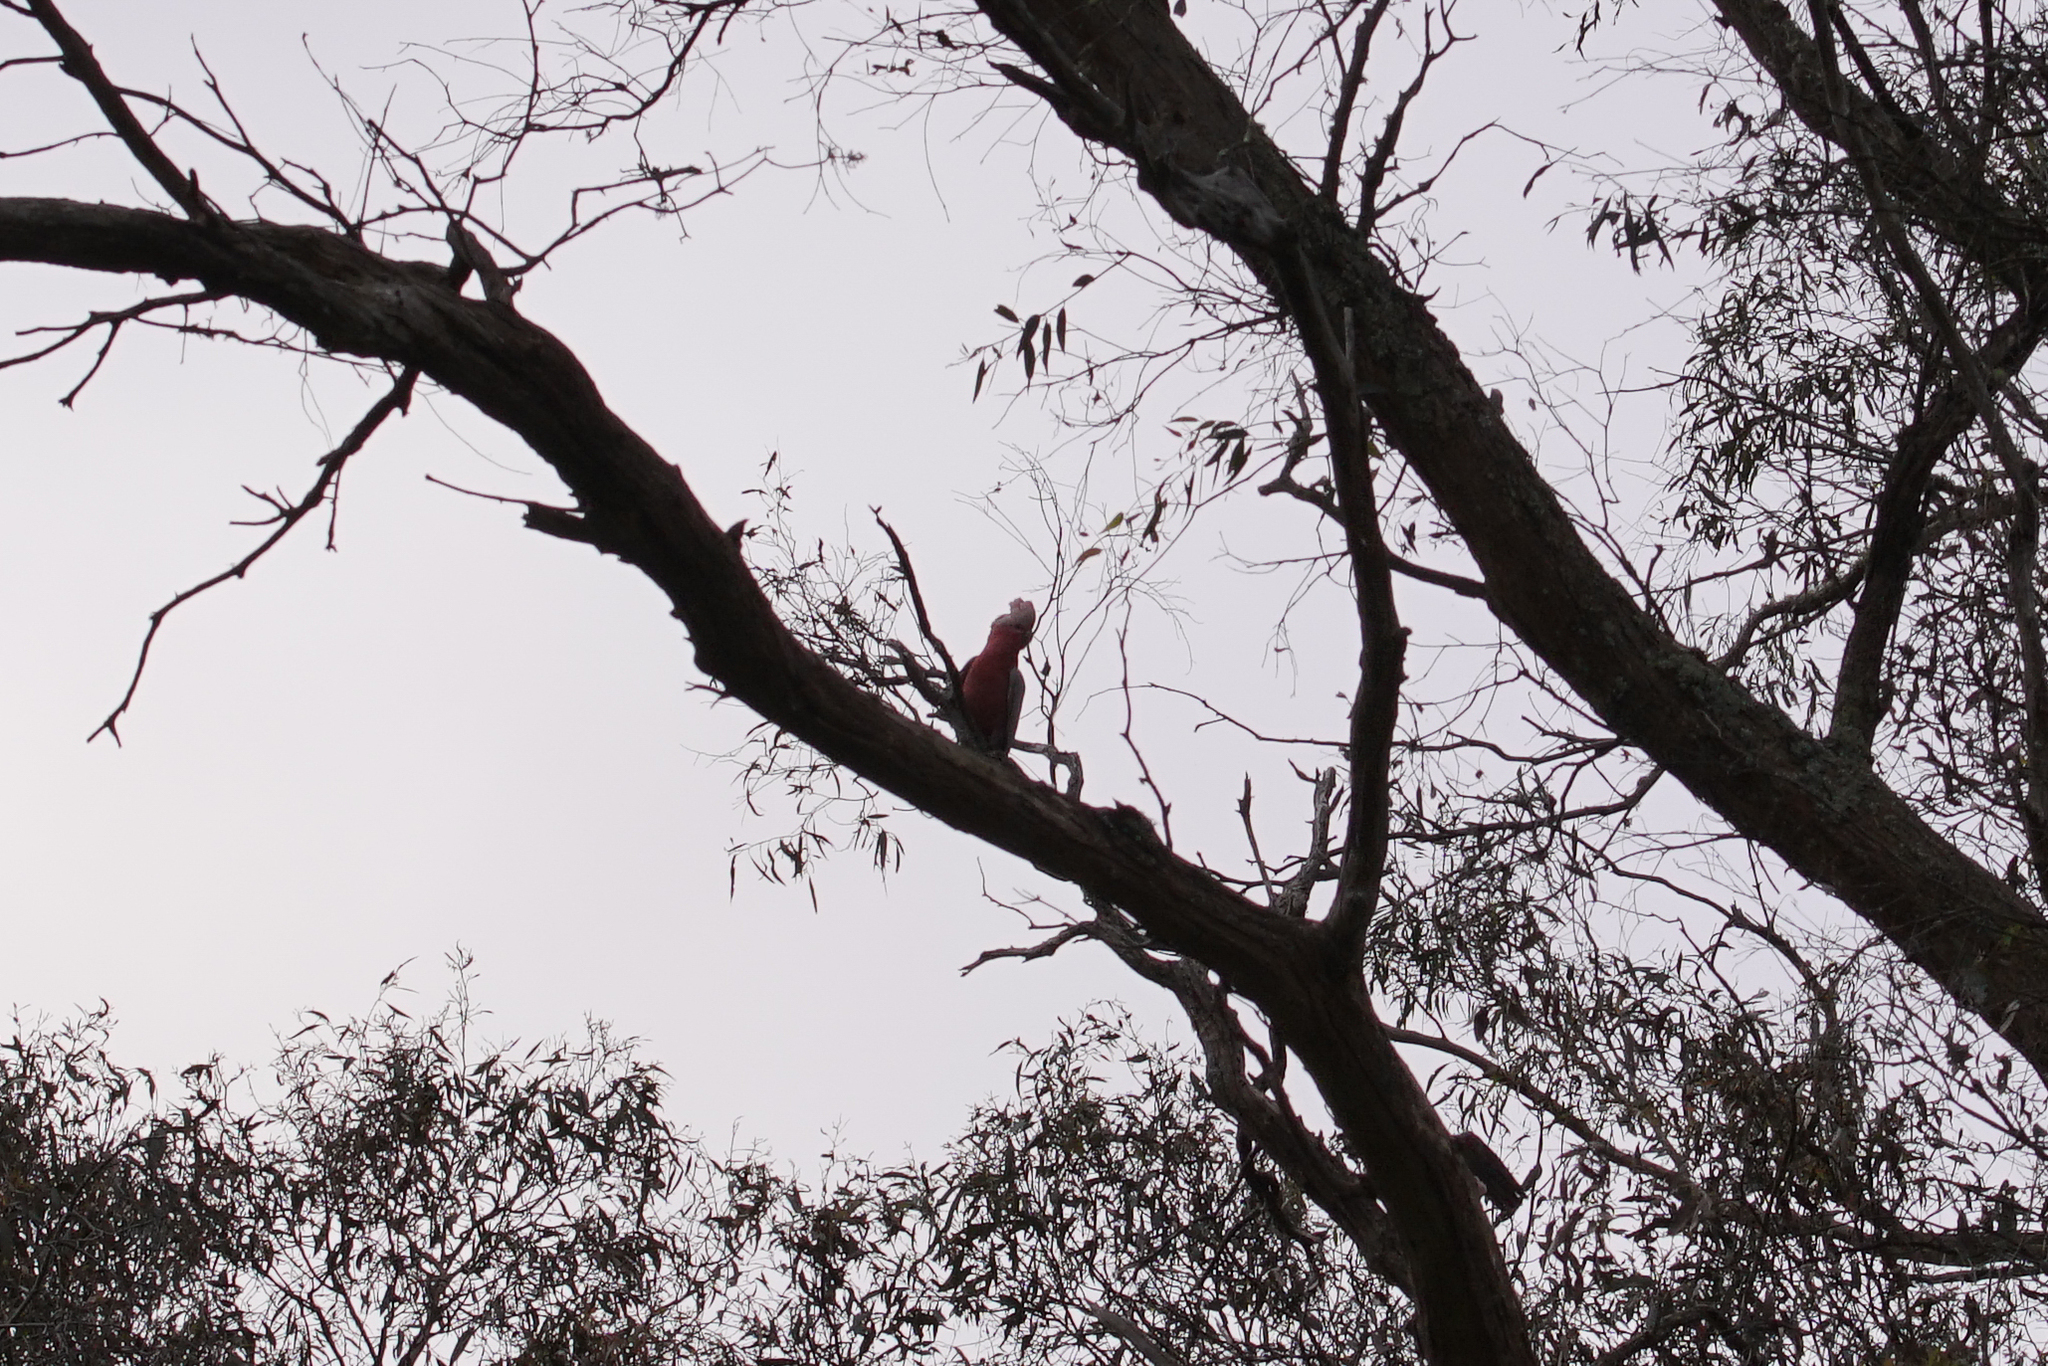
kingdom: Animalia
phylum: Chordata
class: Aves
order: Psittaciformes
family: Psittacidae
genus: Eolophus
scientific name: Eolophus roseicapilla
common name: Galah
